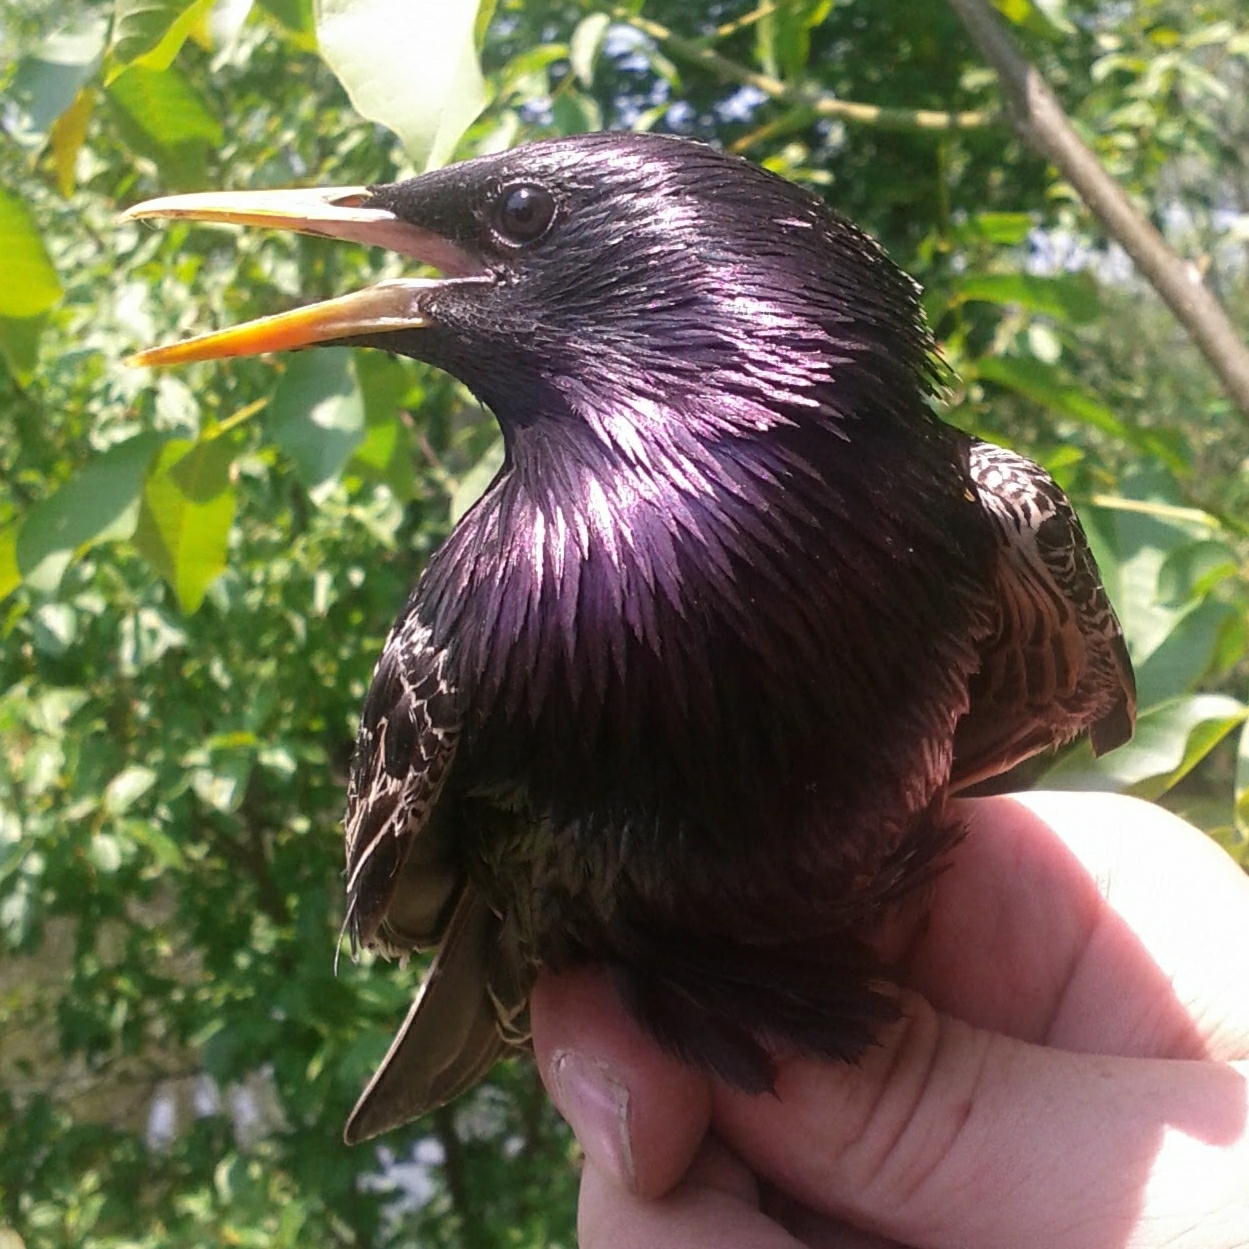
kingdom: Animalia
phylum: Chordata
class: Aves
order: Passeriformes
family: Sturnidae
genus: Sturnus
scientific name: Sturnus vulgaris
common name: Common starling
